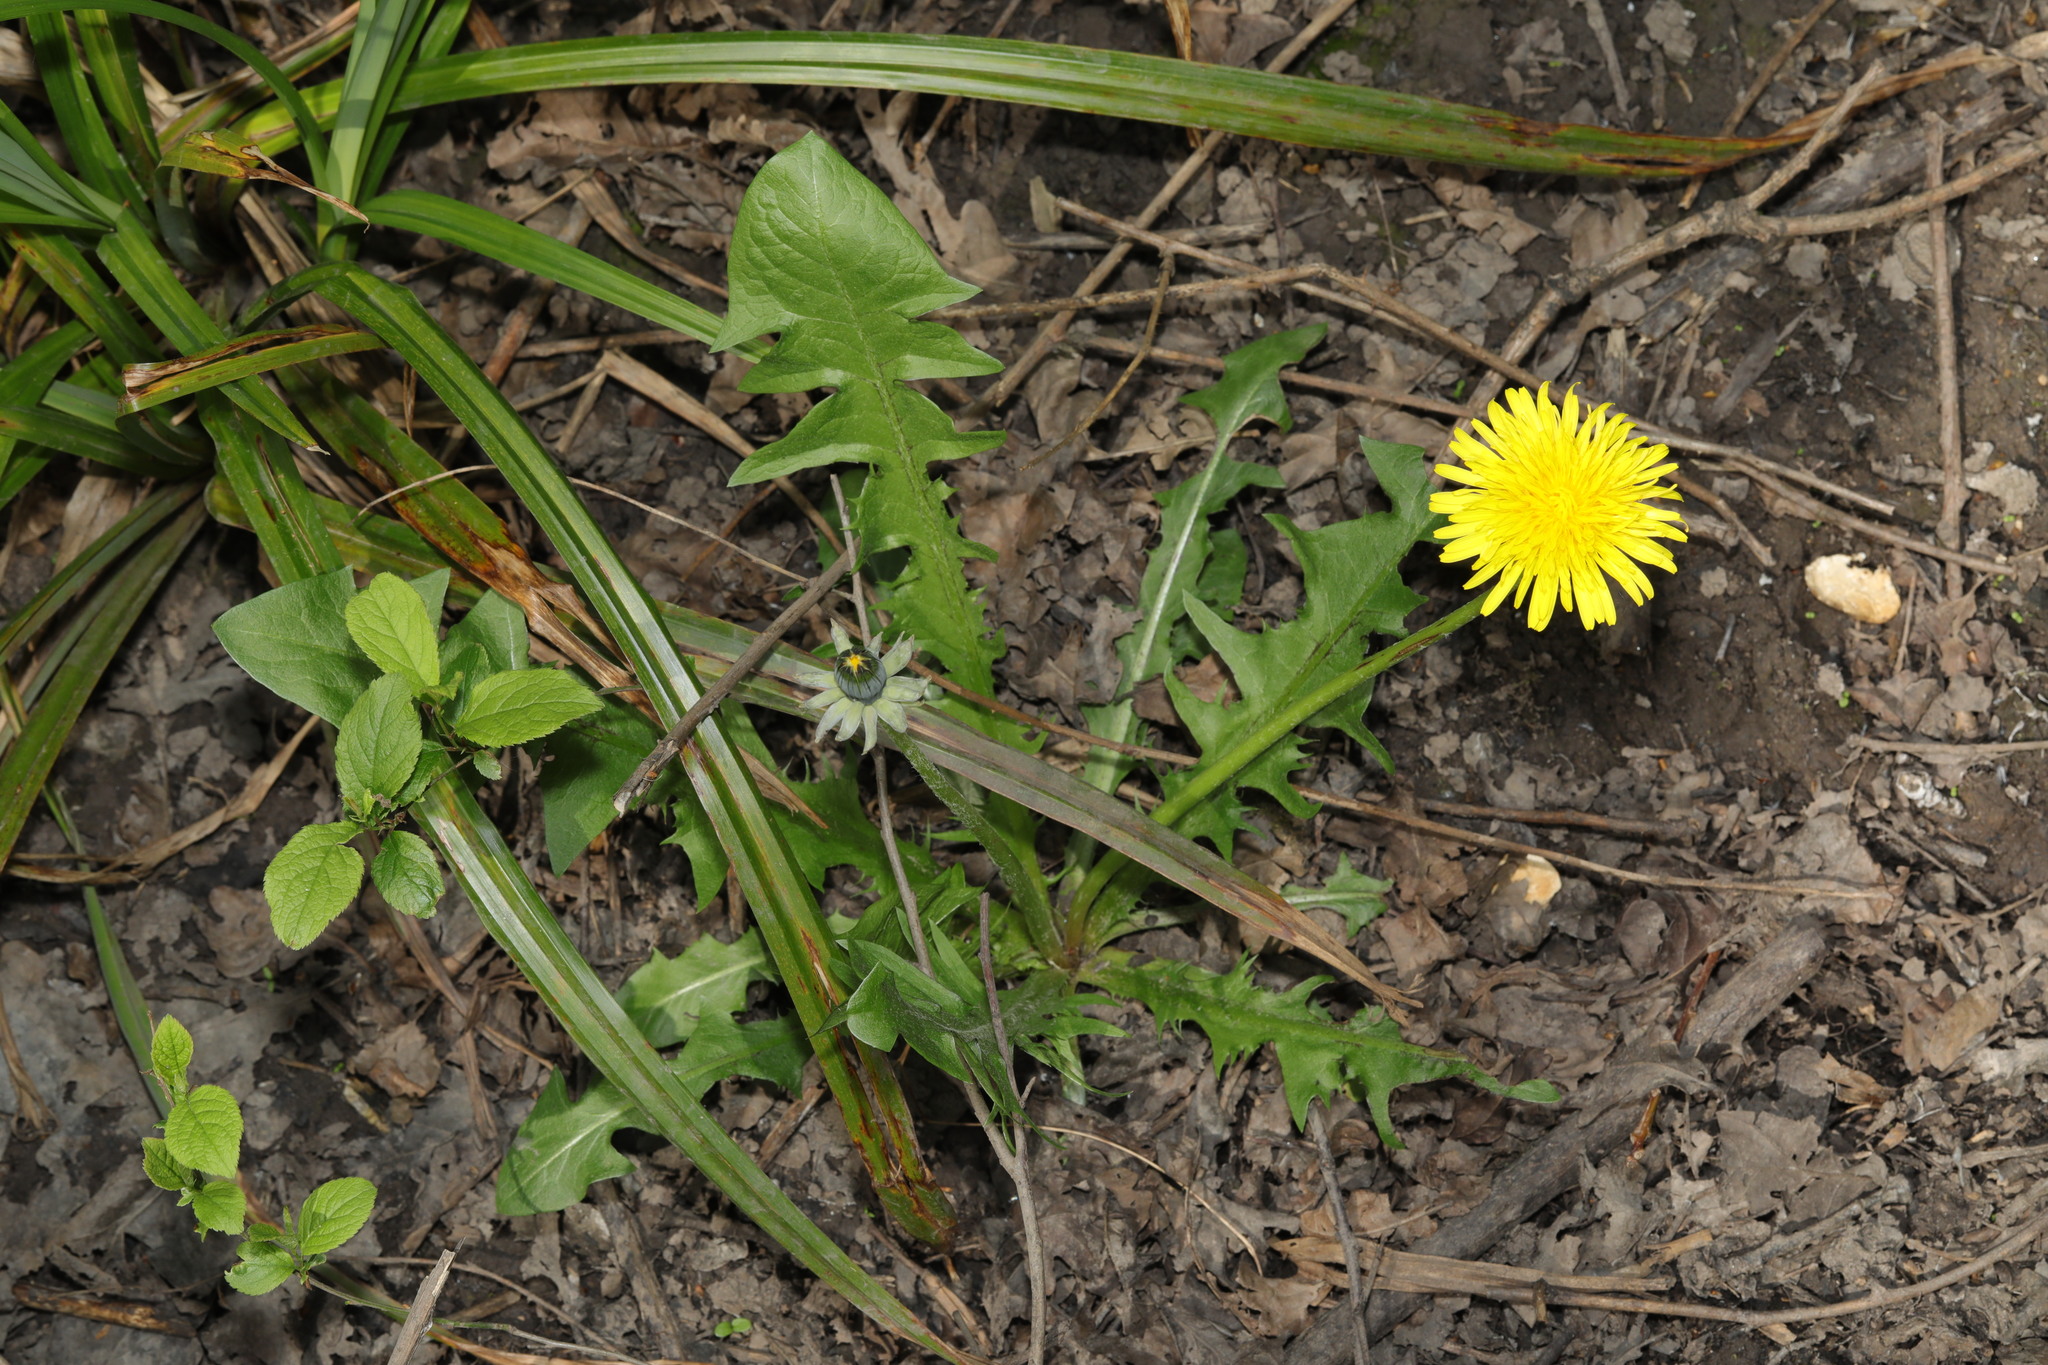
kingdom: Plantae
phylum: Tracheophyta
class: Magnoliopsida
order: Asterales
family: Asteraceae
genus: Taraxacum
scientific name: Taraxacum officinale
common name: Common dandelion
